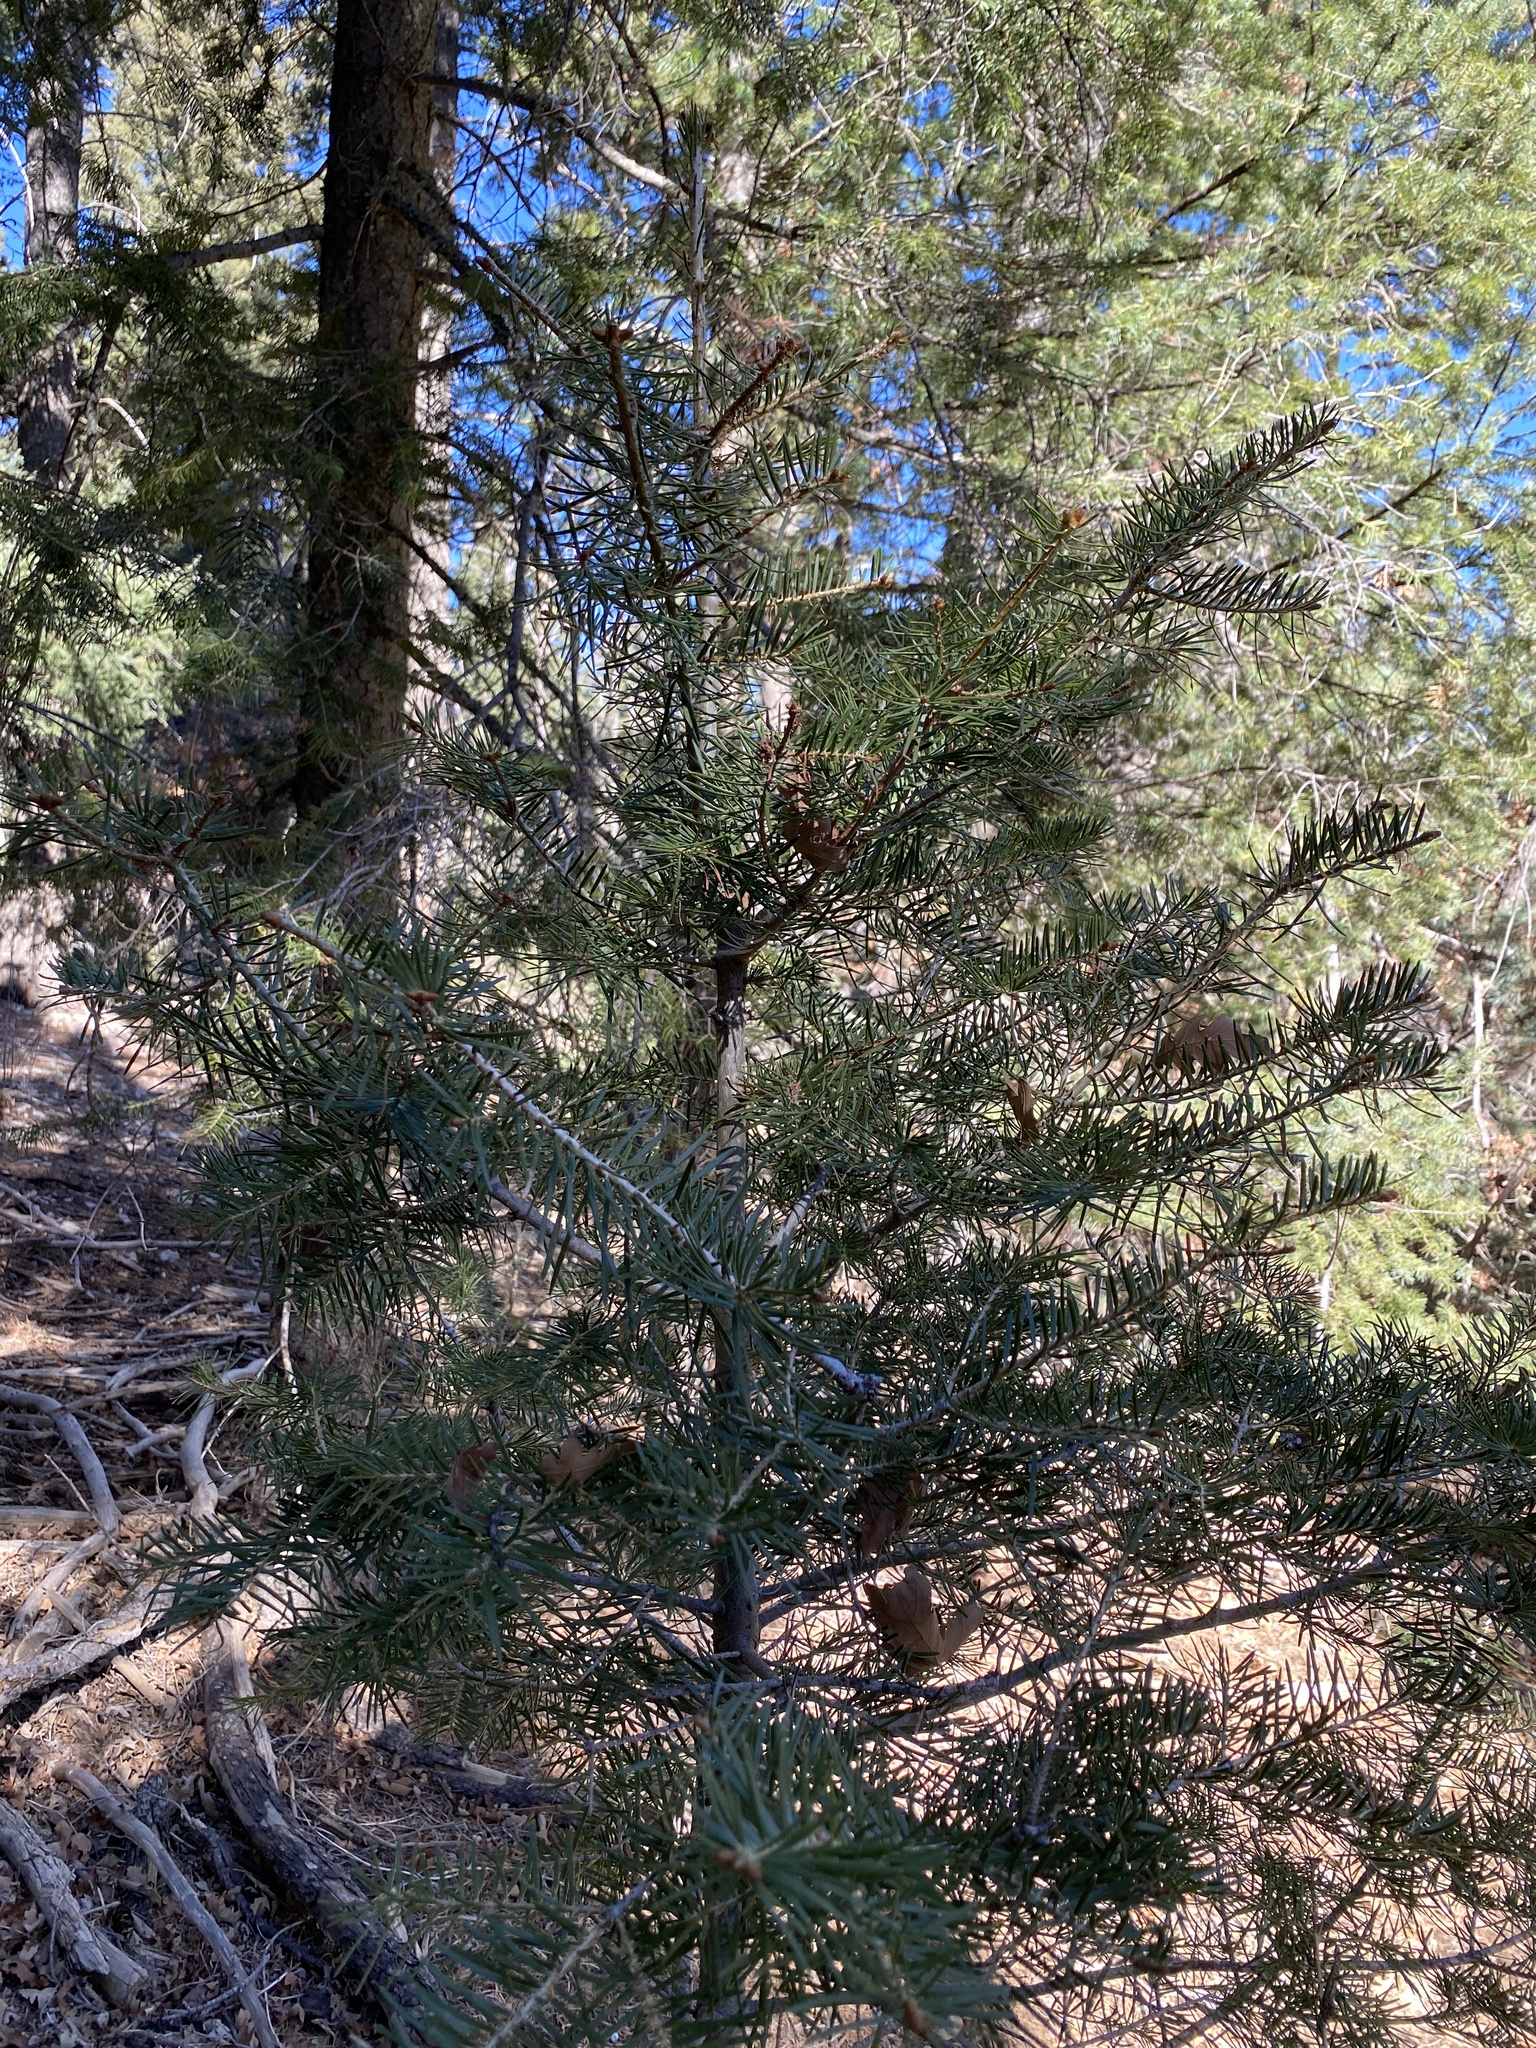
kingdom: Plantae
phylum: Tracheophyta
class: Pinopsida
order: Pinales
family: Pinaceae
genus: Abies
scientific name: Abies concolor
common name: Colorado fir
